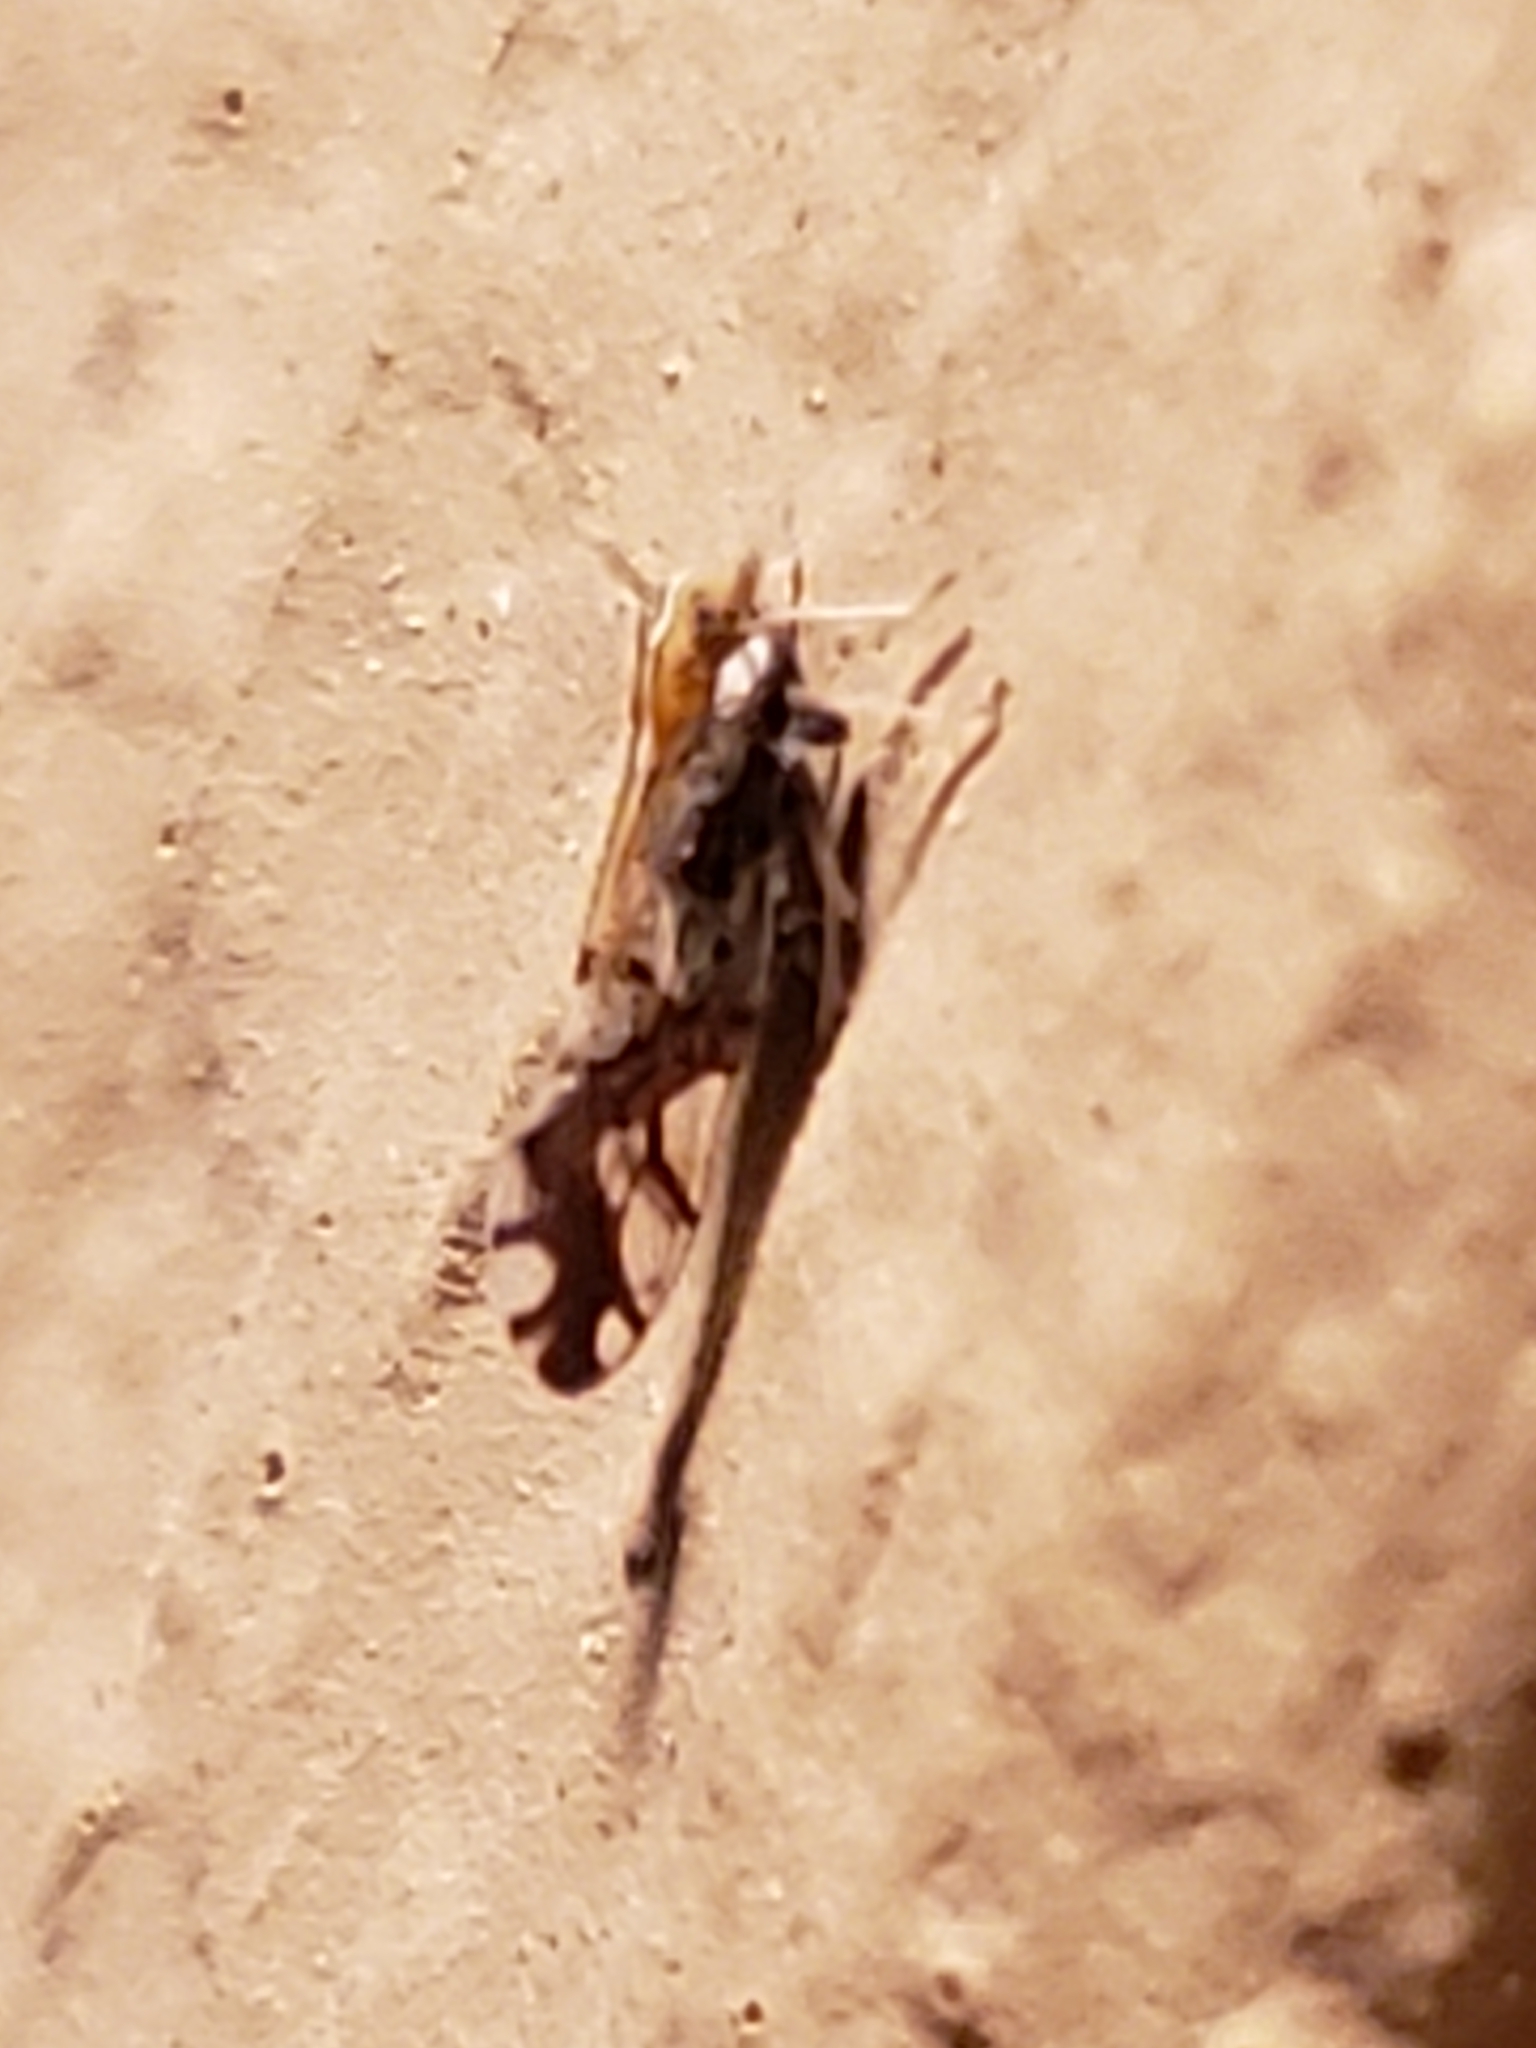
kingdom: Animalia
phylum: Arthropoda
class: Insecta
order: Hemiptera
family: Delphacidae
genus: Liburniella
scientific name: Liburniella ornata
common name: Ornate planthopper
